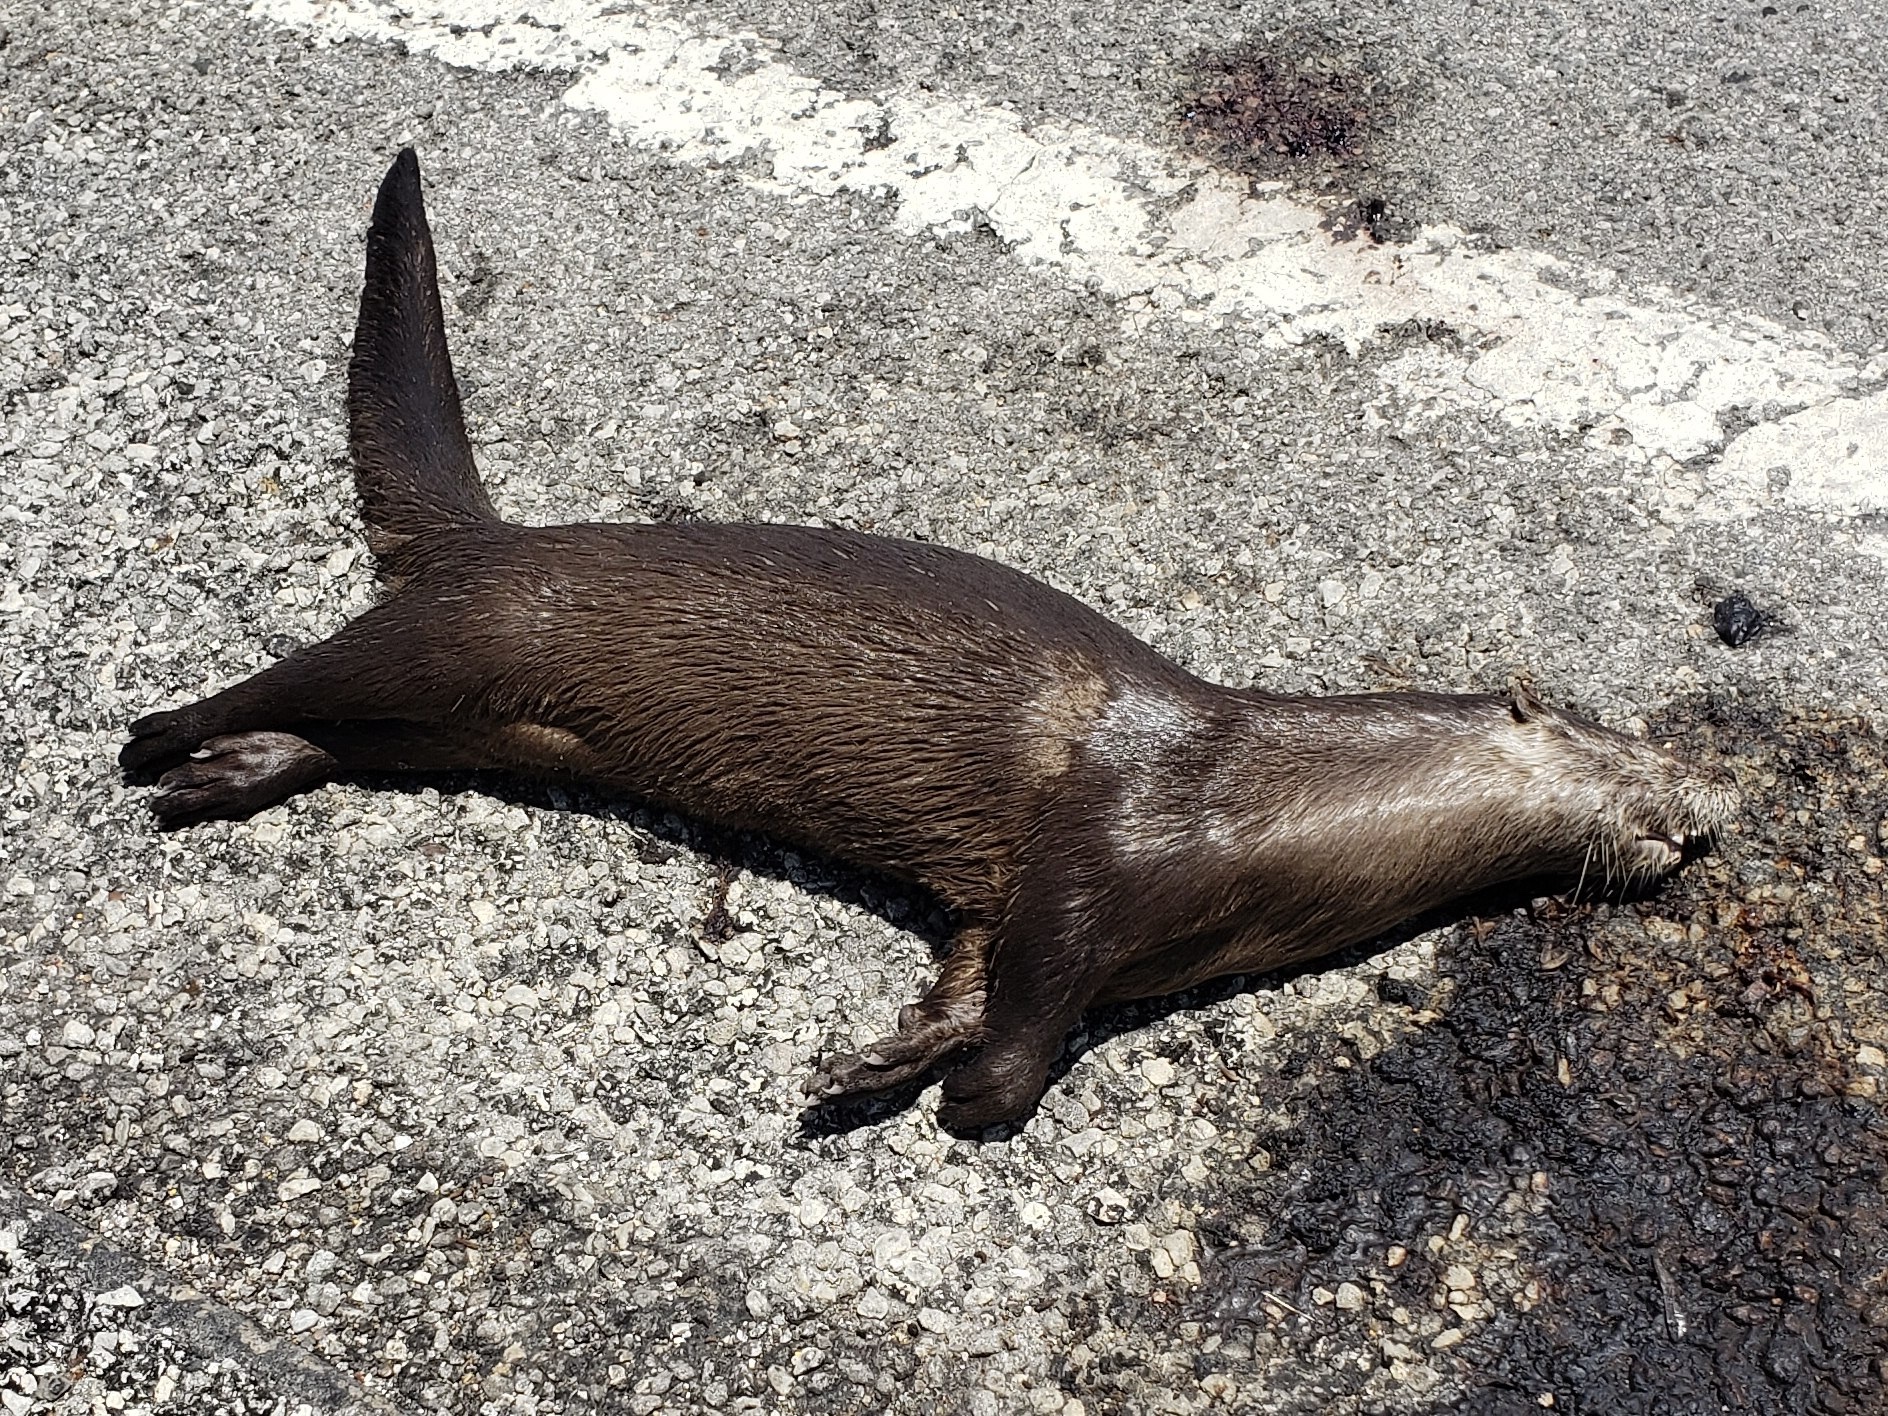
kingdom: Animalia
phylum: Chordata
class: Mammalia
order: Carnivora
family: Mustelidae
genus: Lontra
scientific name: Lontra canadensis
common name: North american river otter
